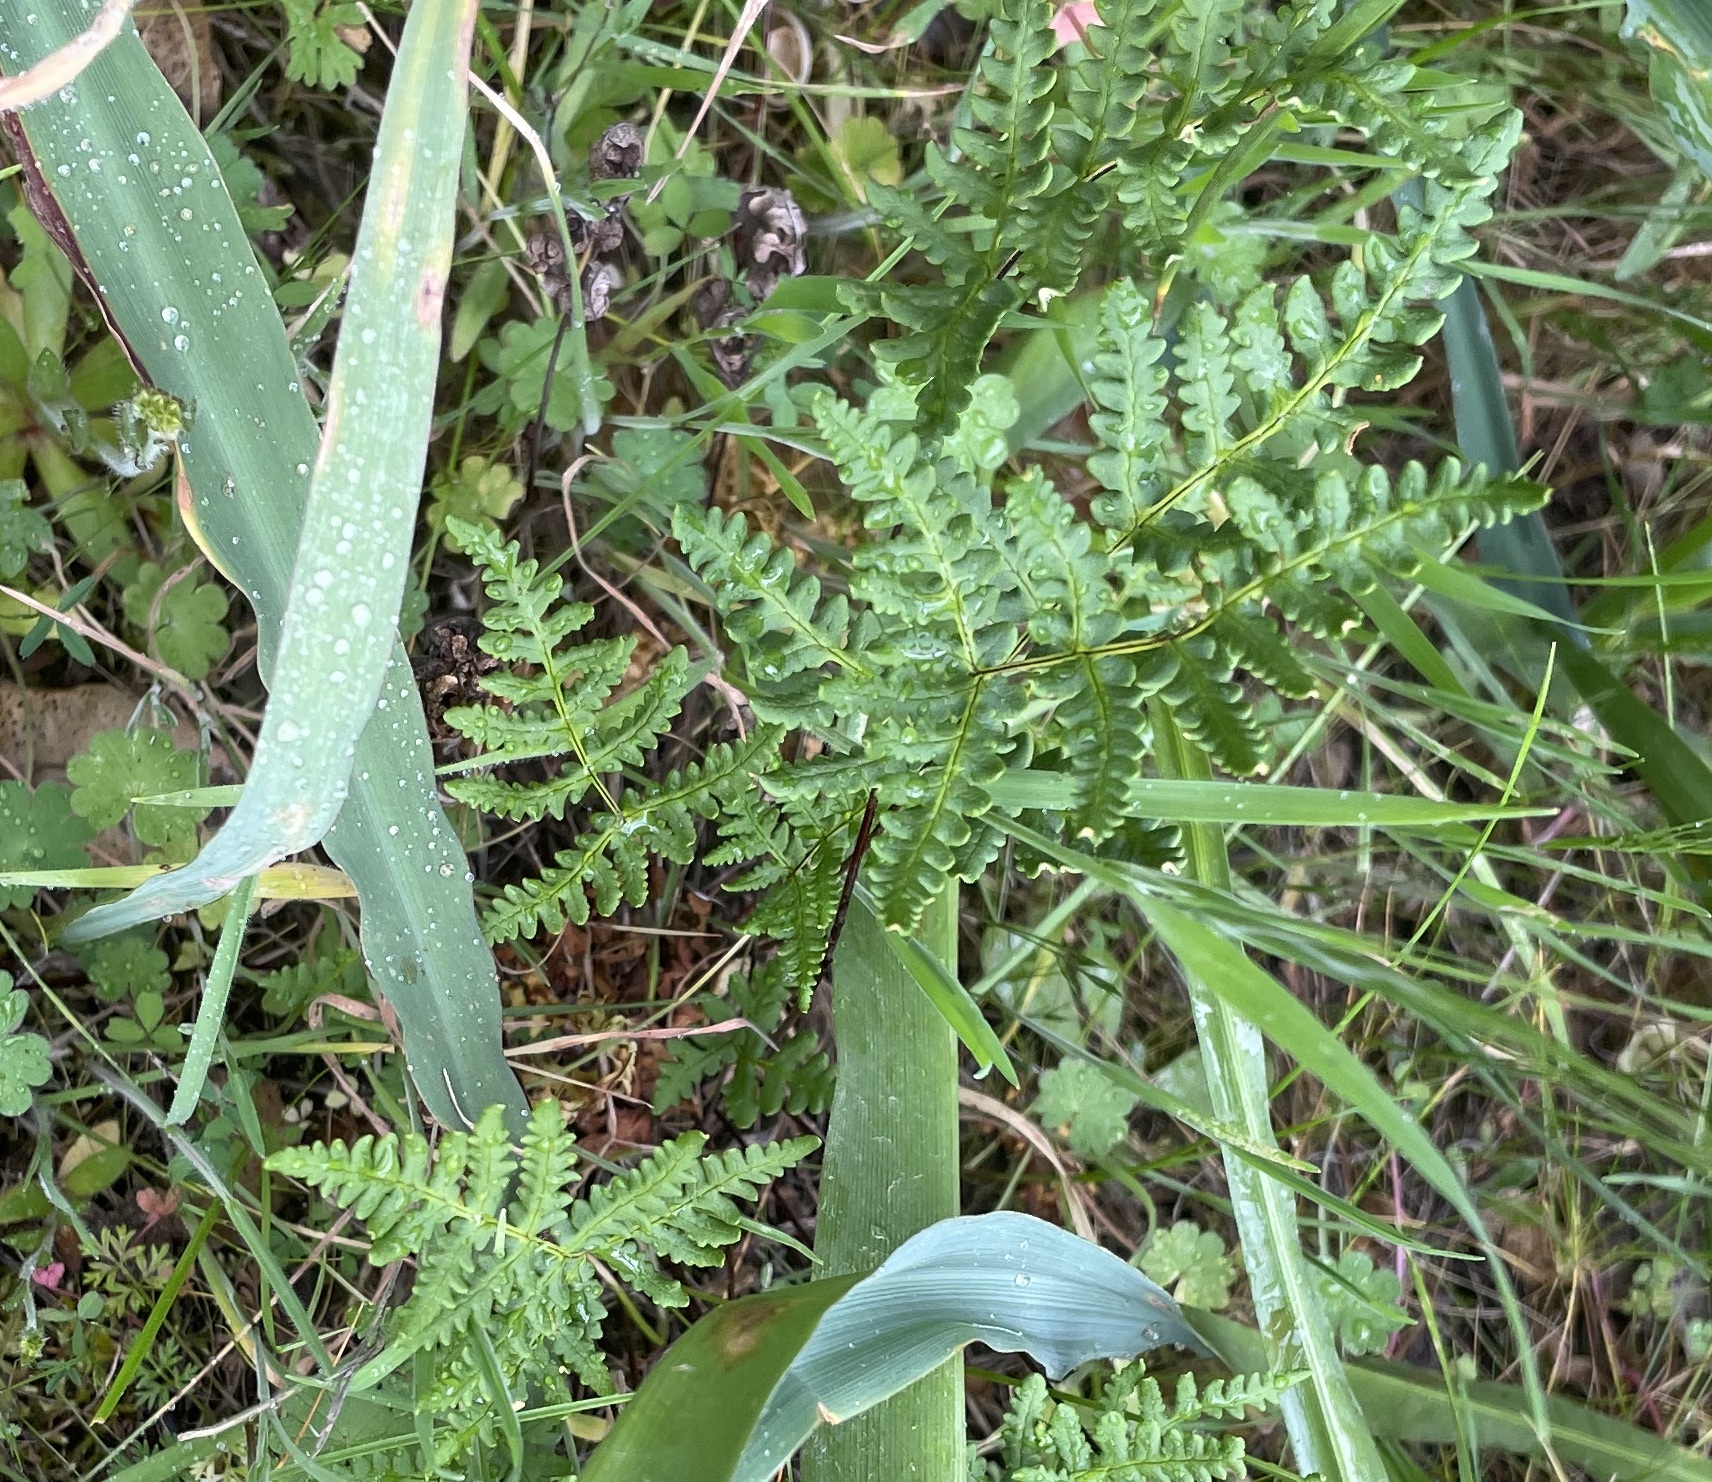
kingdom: Plantae
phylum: Tracheophyta
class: Polypodiopsida
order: Polypodiales
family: Pteridaceae
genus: Pentagramma
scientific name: Pentagramma triangularis
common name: Gold fern
